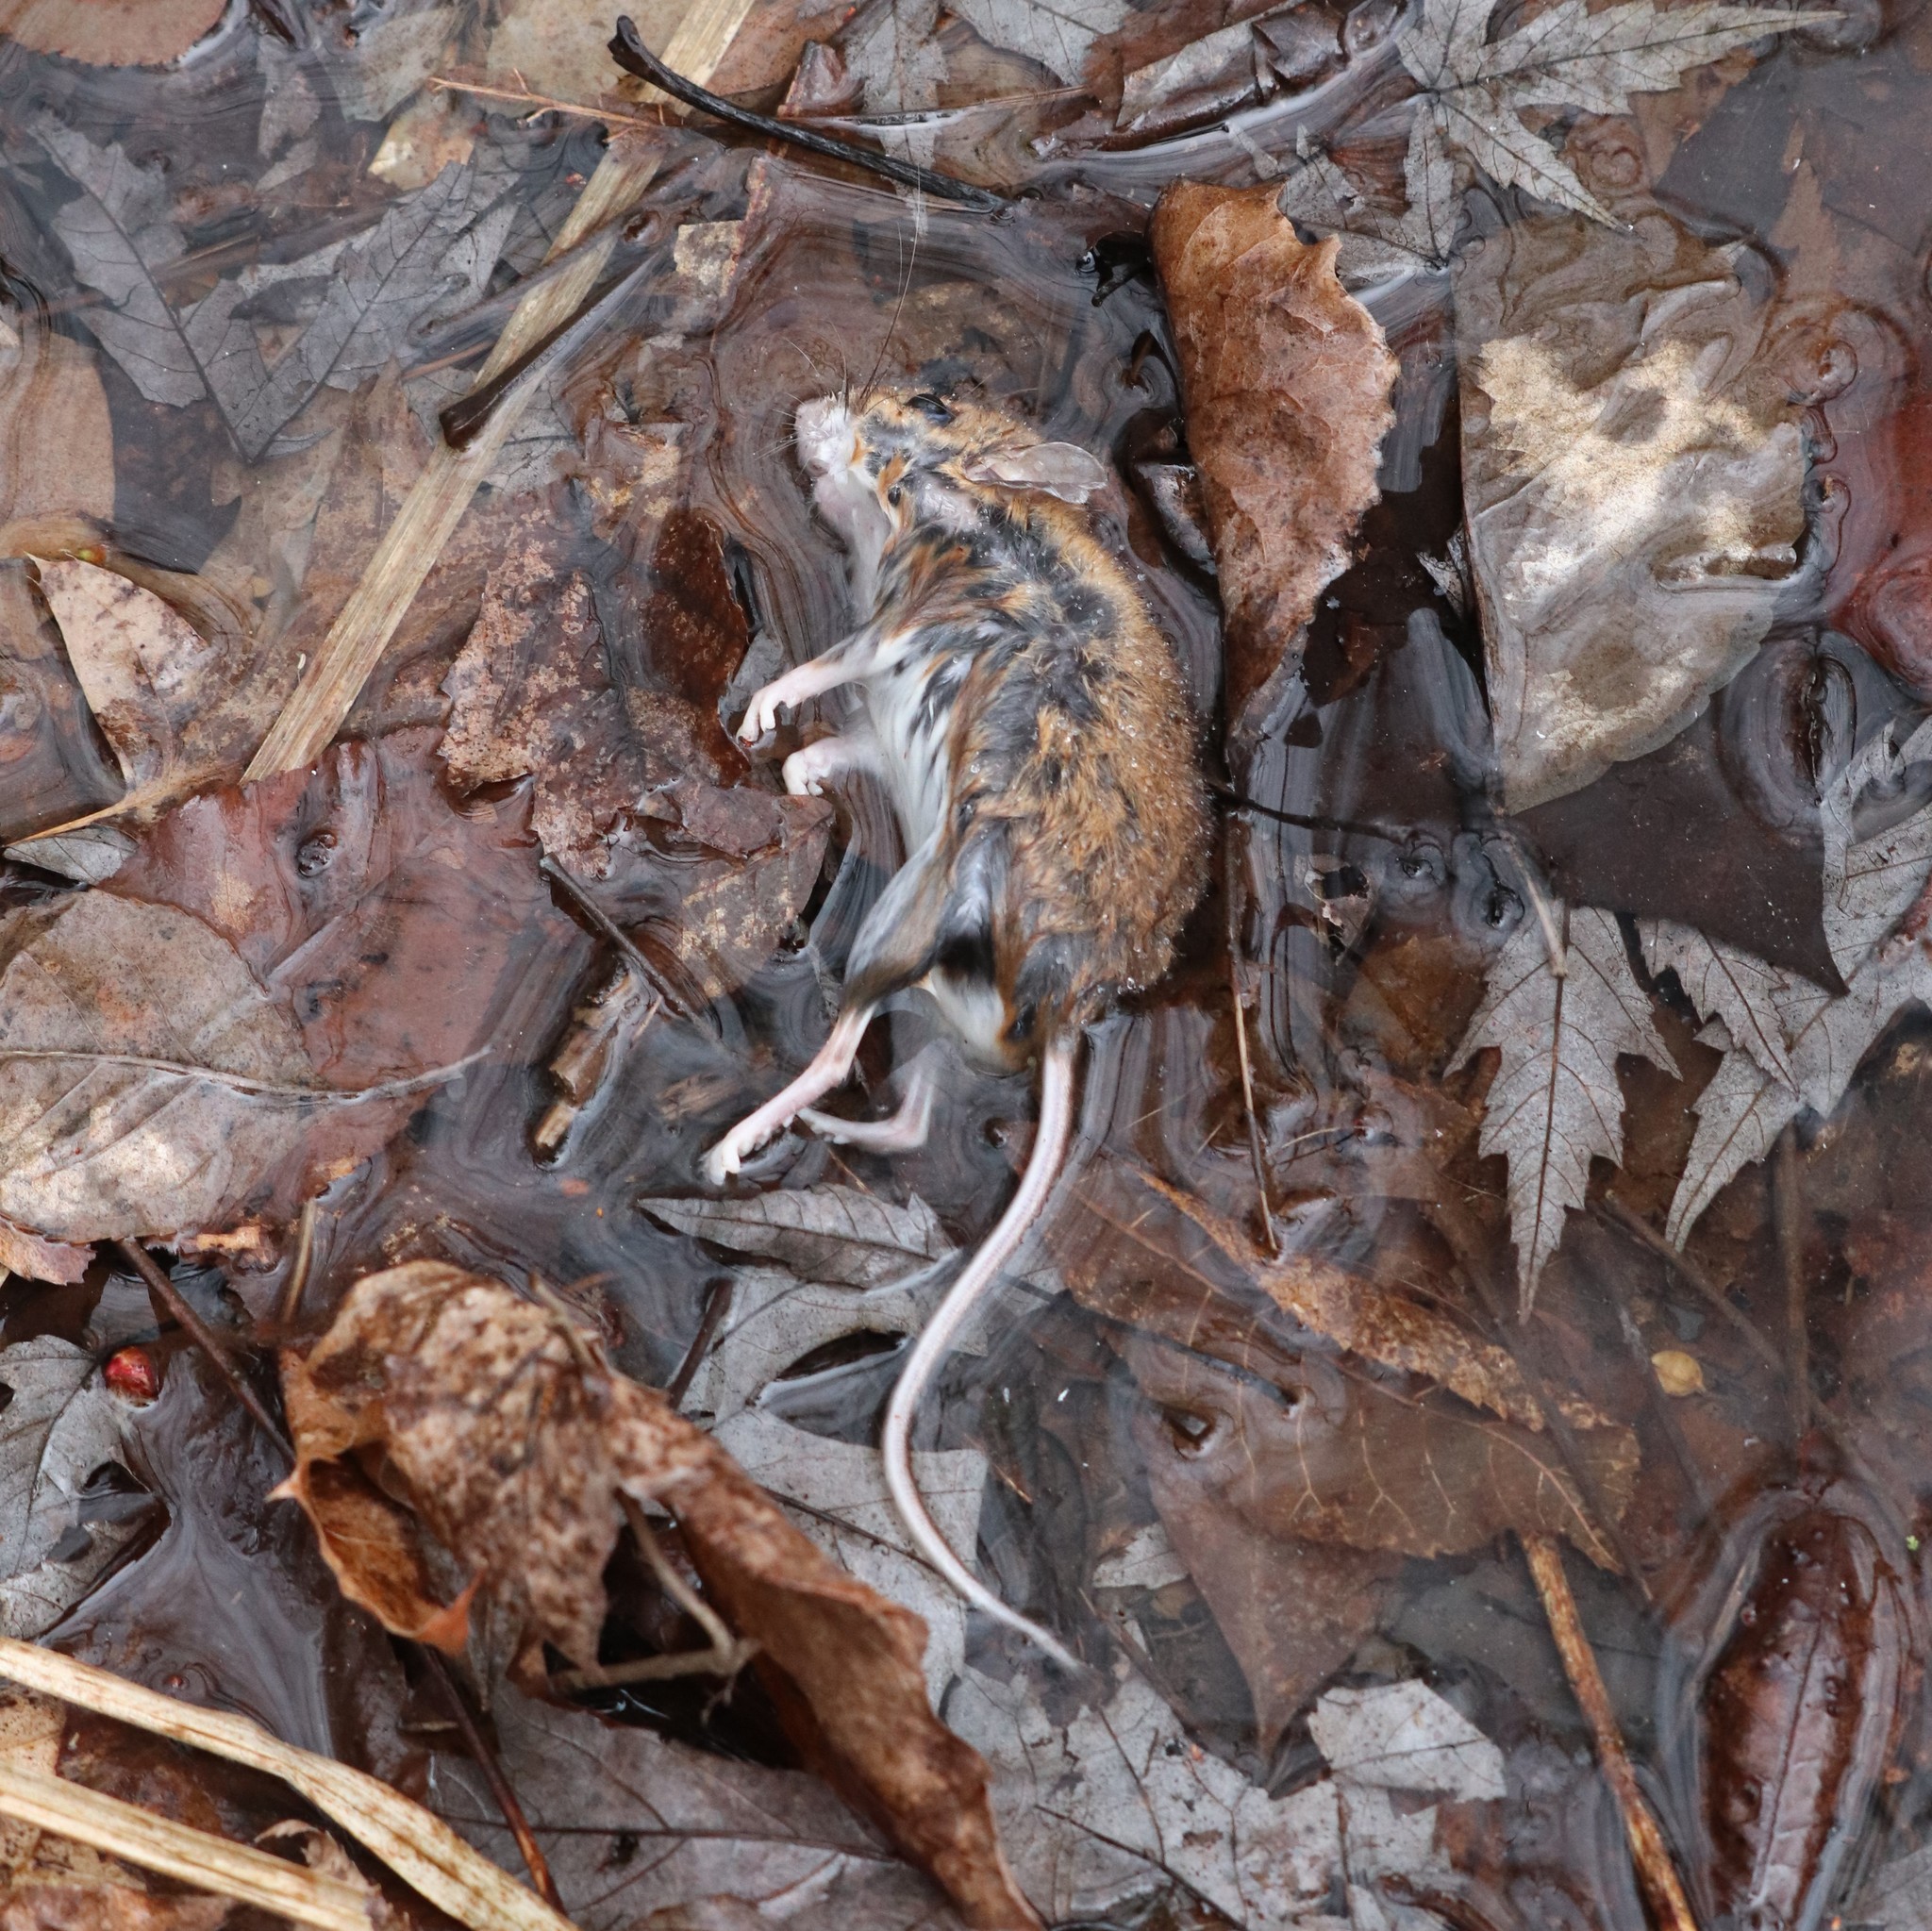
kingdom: Animalia
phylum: Chordata
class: Mammalia
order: Rodentia
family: Cricetidae
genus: Peromyscus
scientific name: Peromyscus leucopus
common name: White-footed deermouse
